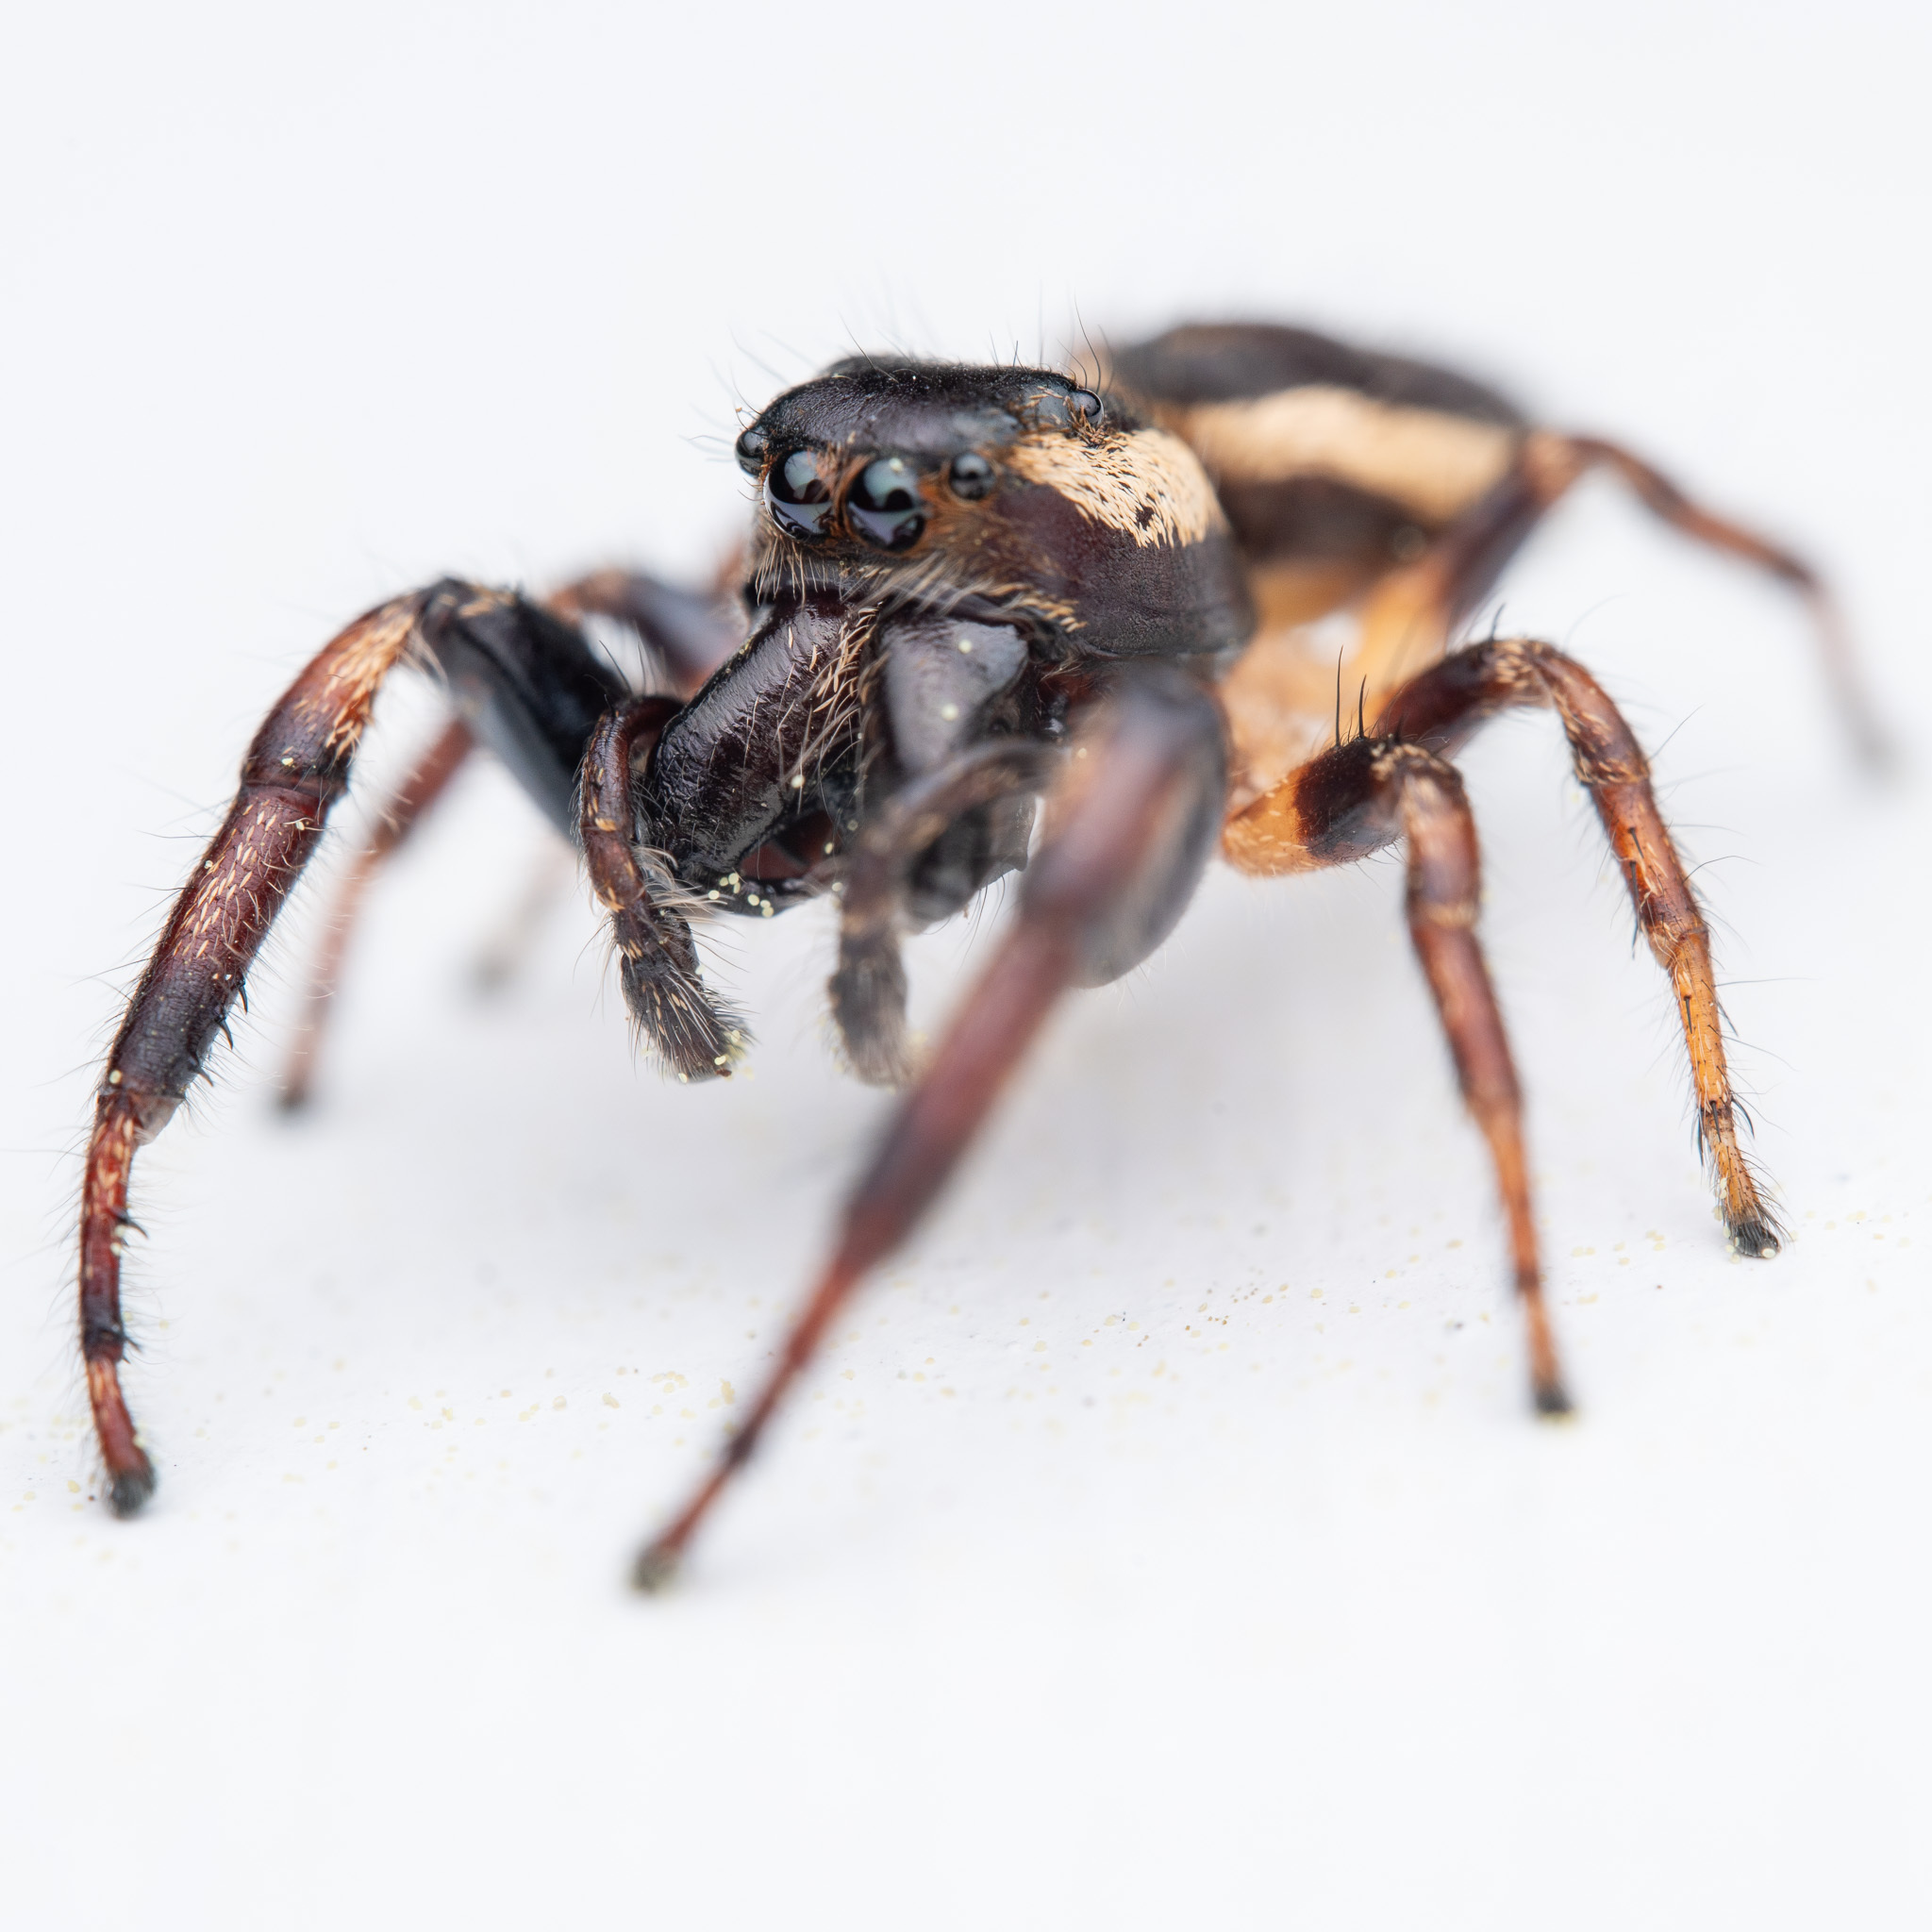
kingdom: Animalia
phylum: Arthropoda
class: Arachnida
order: Araneae
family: Salticidae
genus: Eris
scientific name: Eris militaris
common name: Bronze jumper
